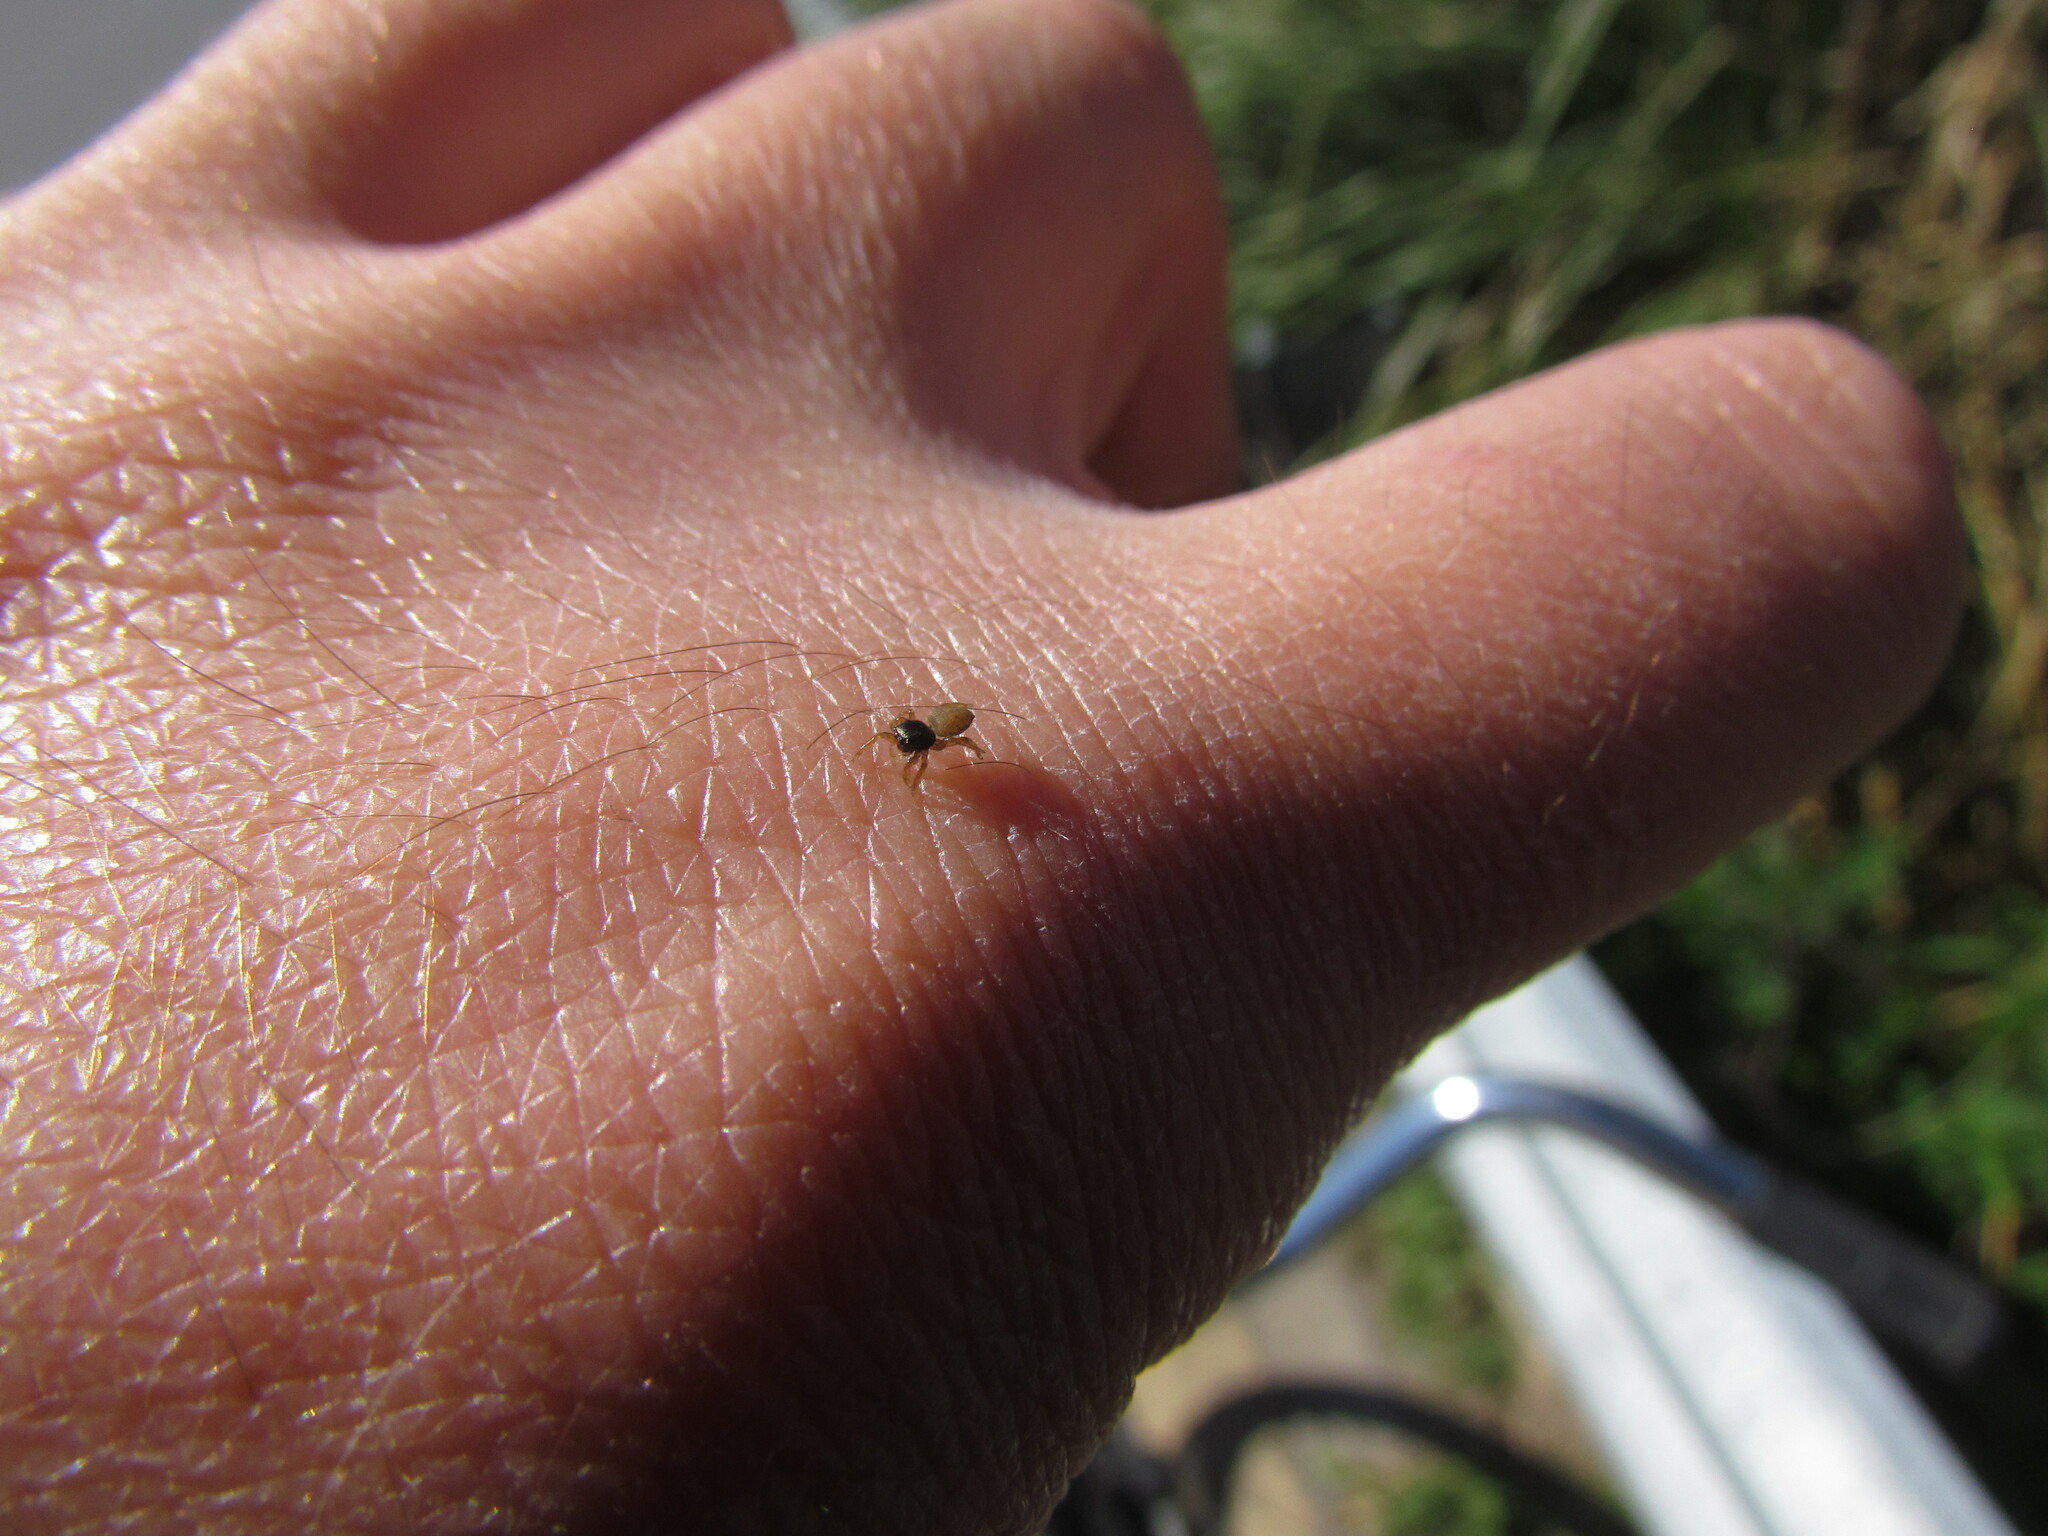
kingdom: Animalia
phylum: Arthropoda
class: Arachnida
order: Araneae
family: Salticidae
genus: Euophrys
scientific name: Euophrys melanoleuca
